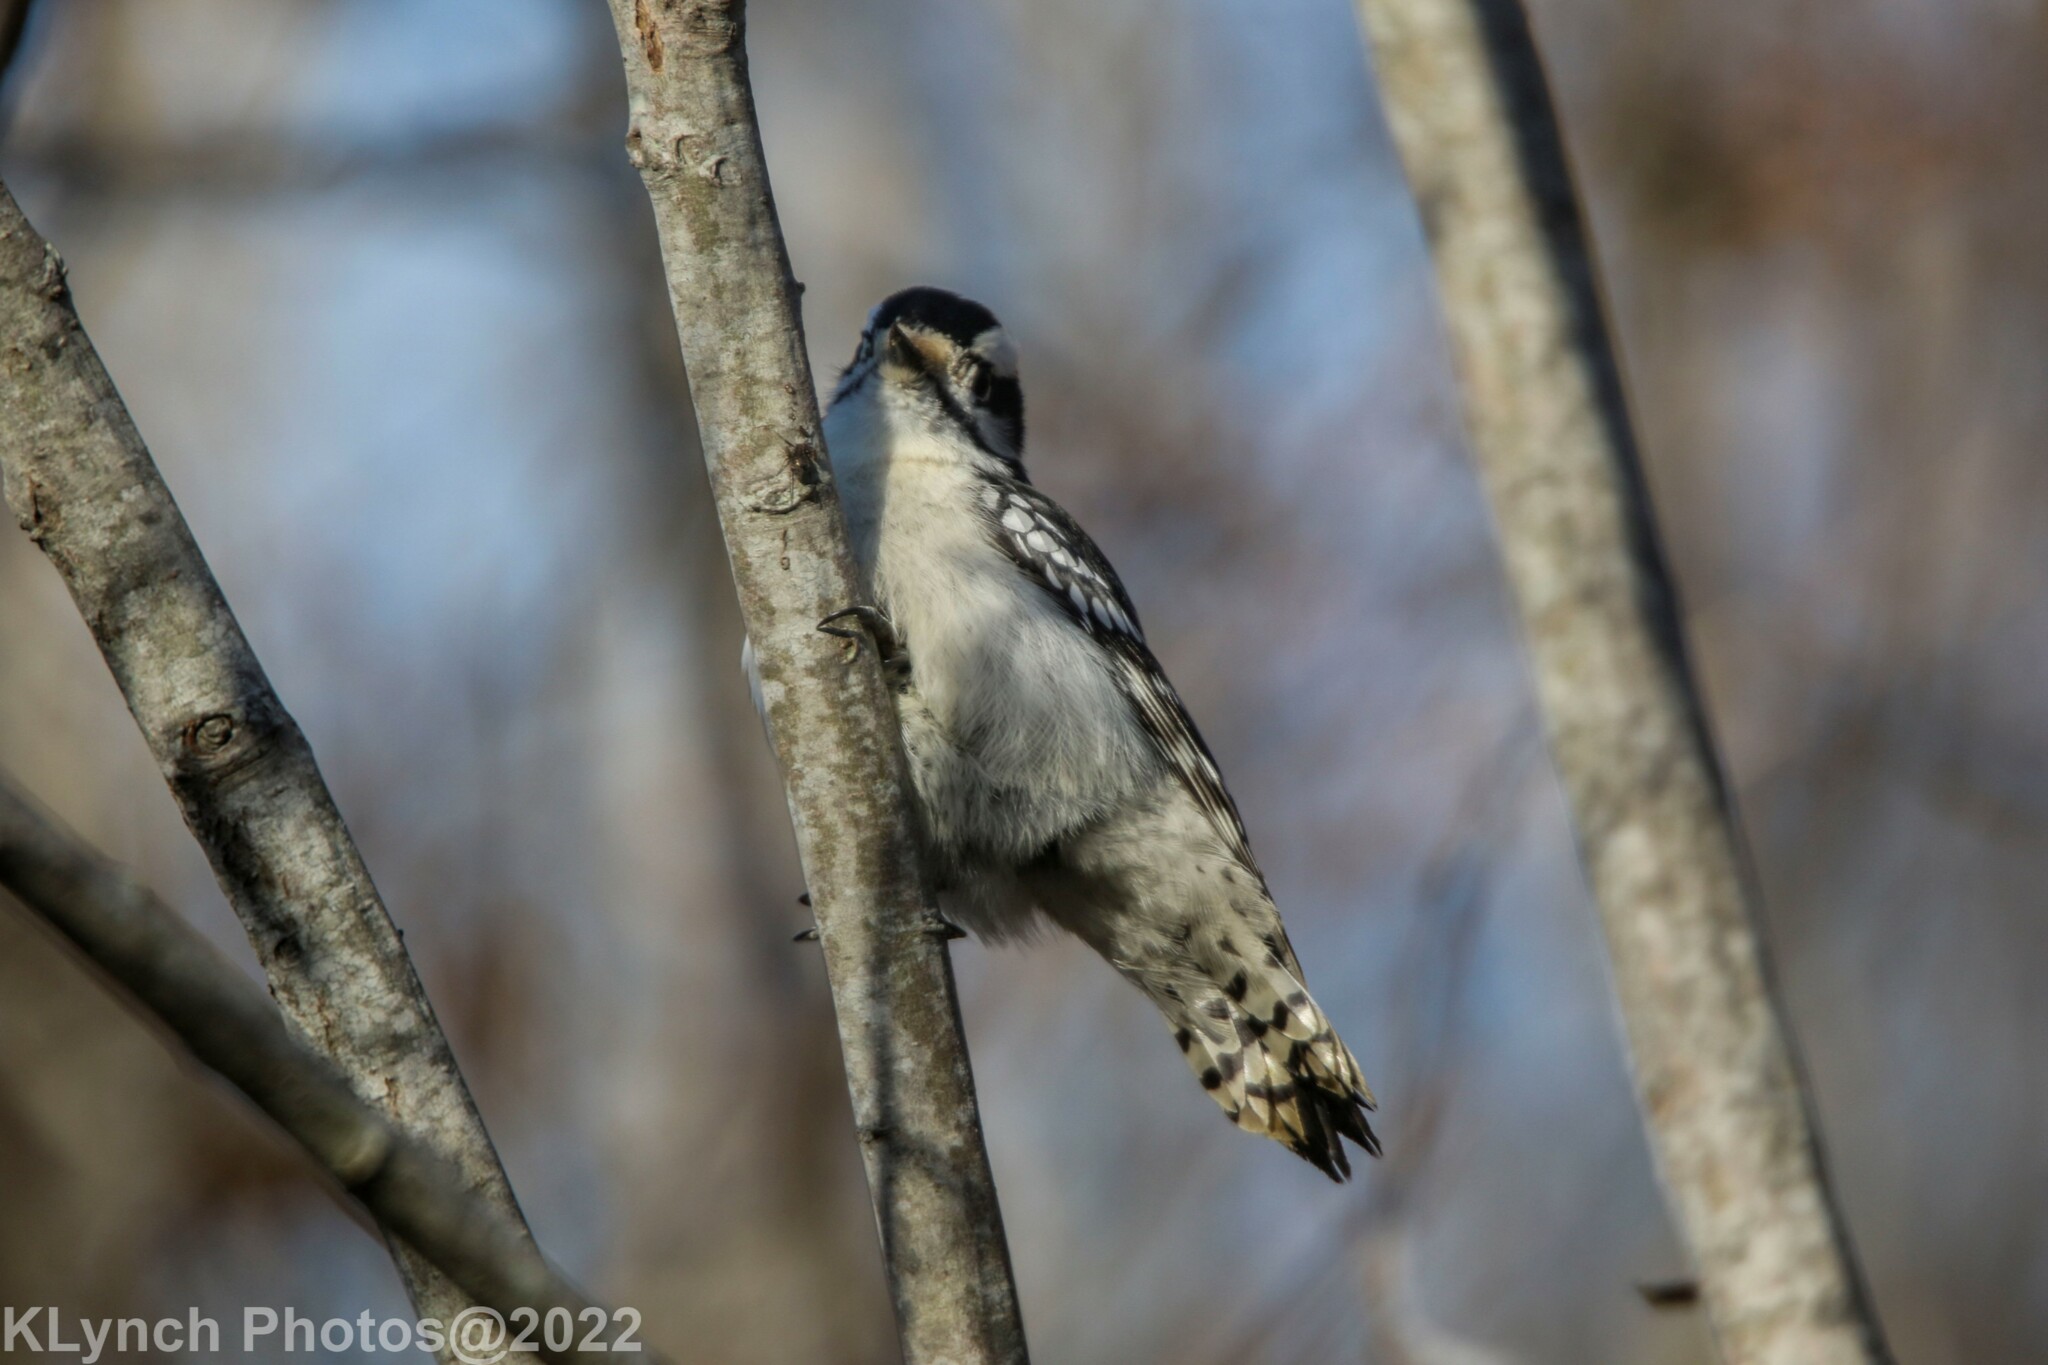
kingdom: Animalia
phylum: Chordata
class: Aves
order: Piciformes
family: Picidae
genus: Dryobates
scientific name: Dryobates pubescens
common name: Downy woodpecker
